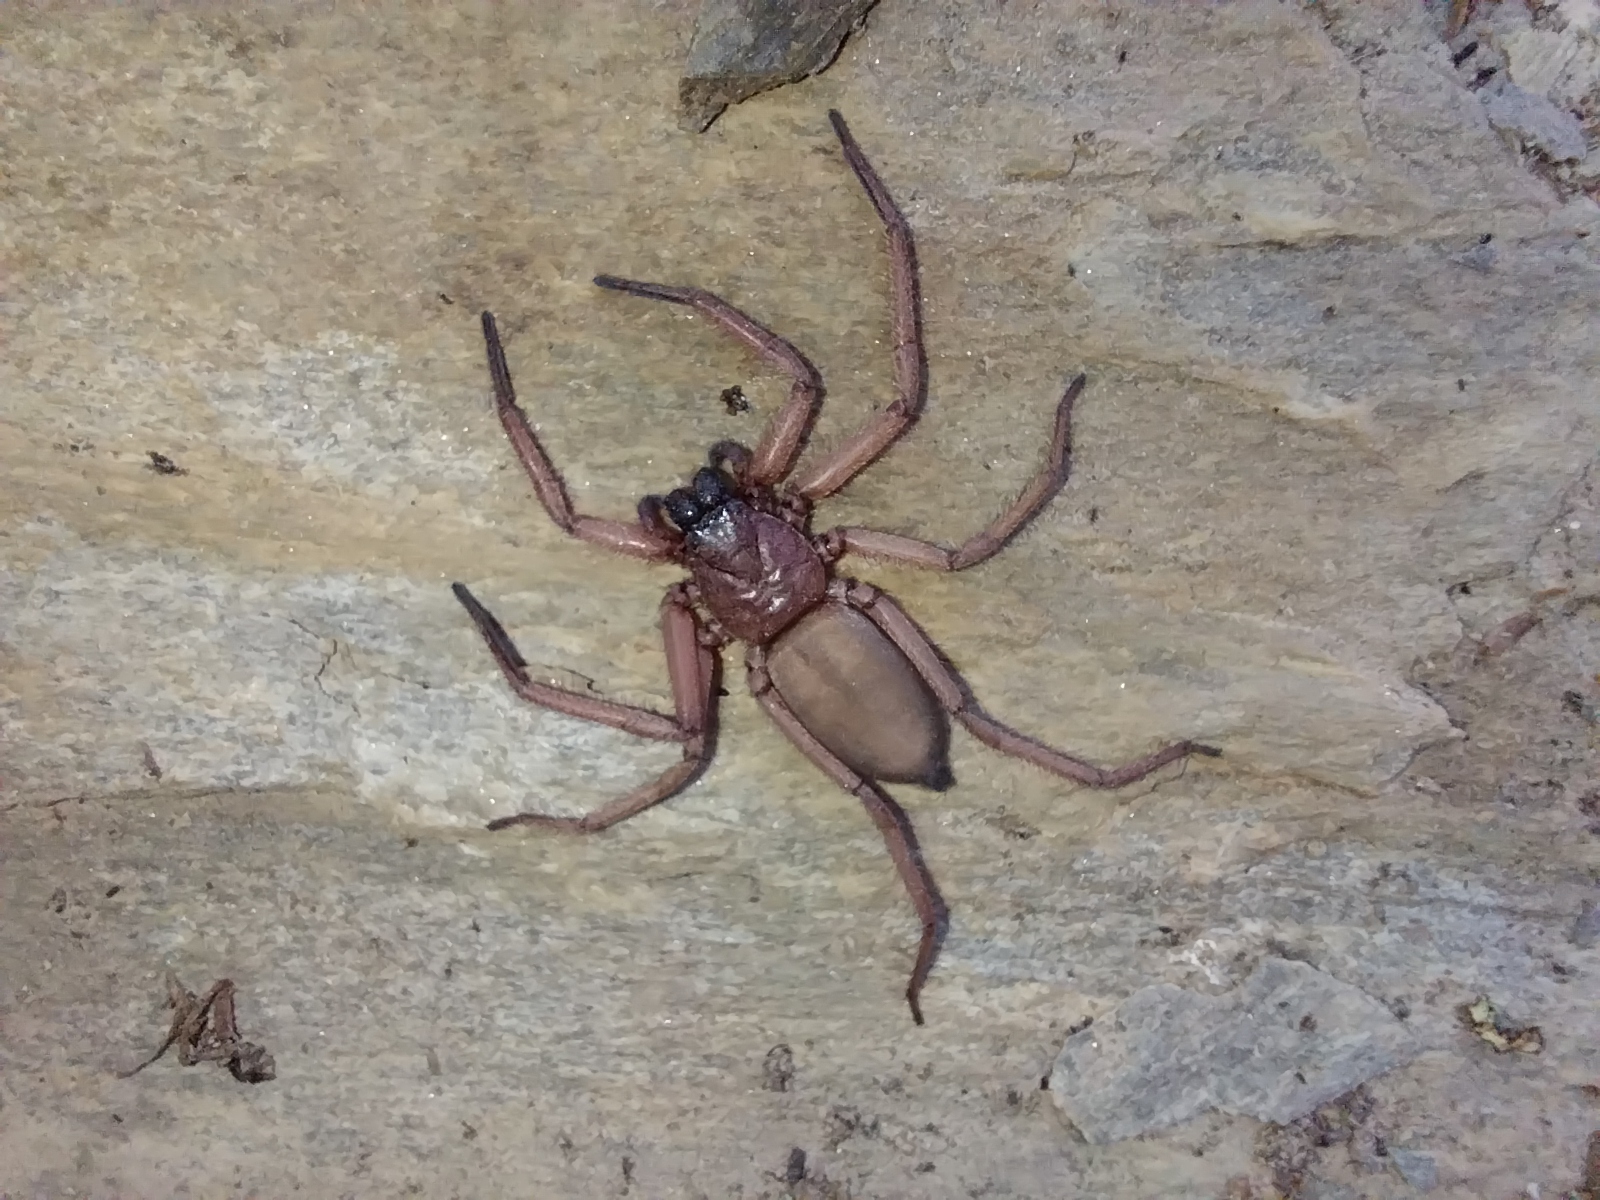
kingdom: Animalia
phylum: Arthropoda
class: Arachnida
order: Araneae
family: Trochanteriidae
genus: Hemicloea
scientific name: Hemicloea rogenhoferi
